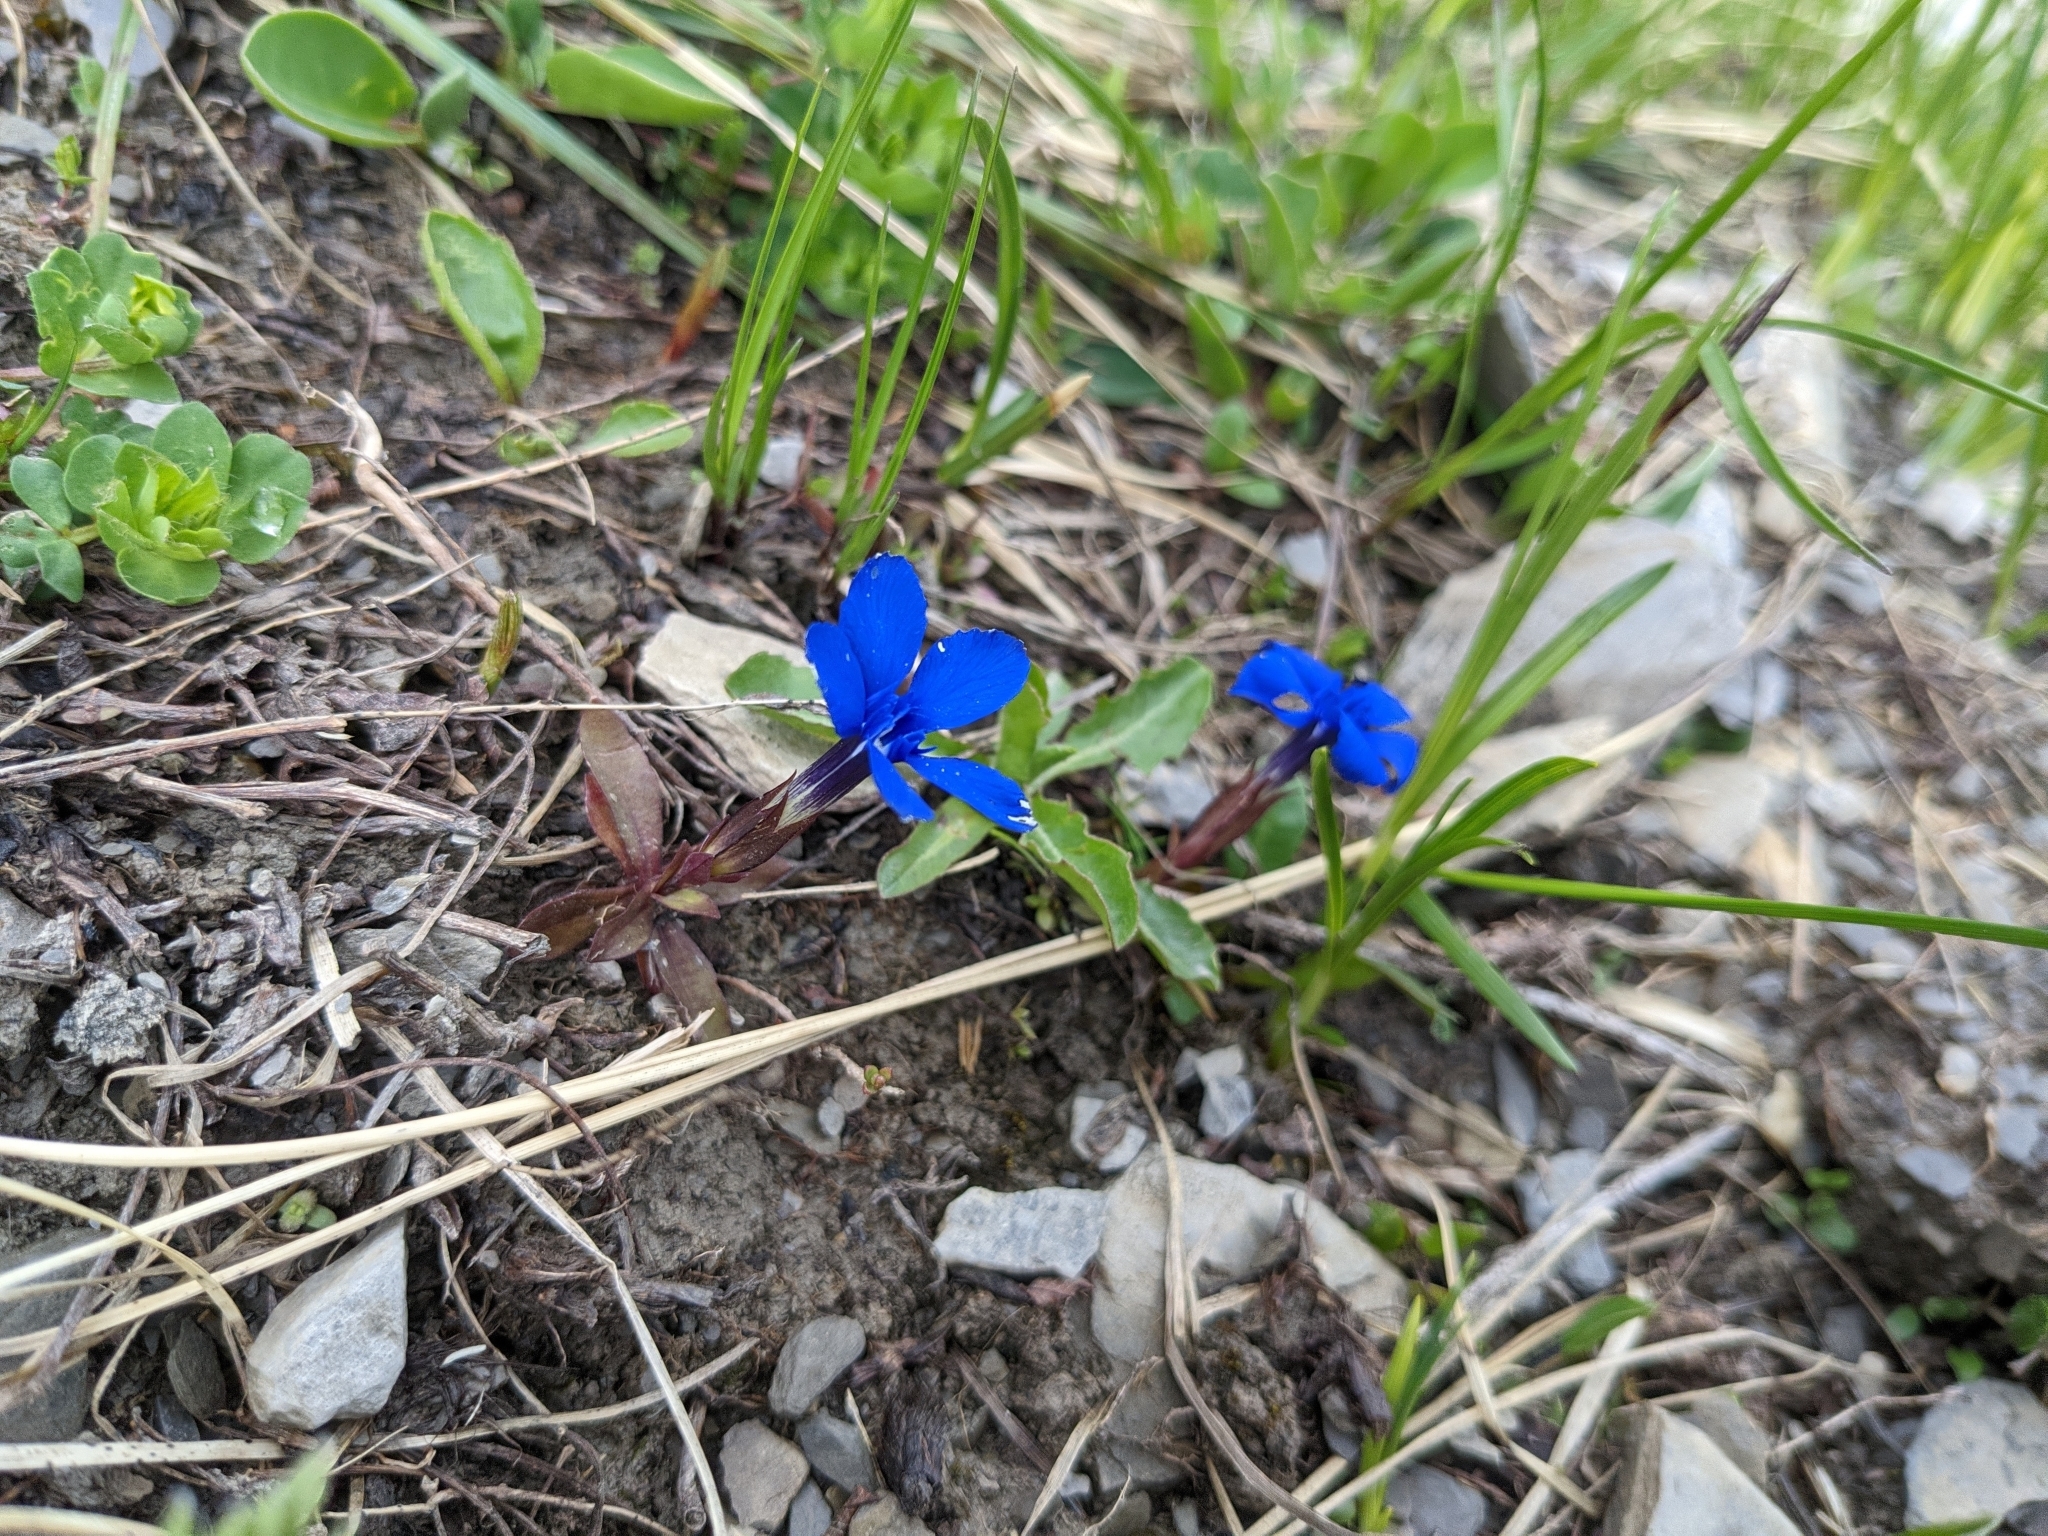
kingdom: Plantae
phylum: Tracheophyta
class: Magnoliopsida
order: Gentianales
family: Gentianaceae
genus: Gentiana
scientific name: Gentiana verna
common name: Spring gentian
